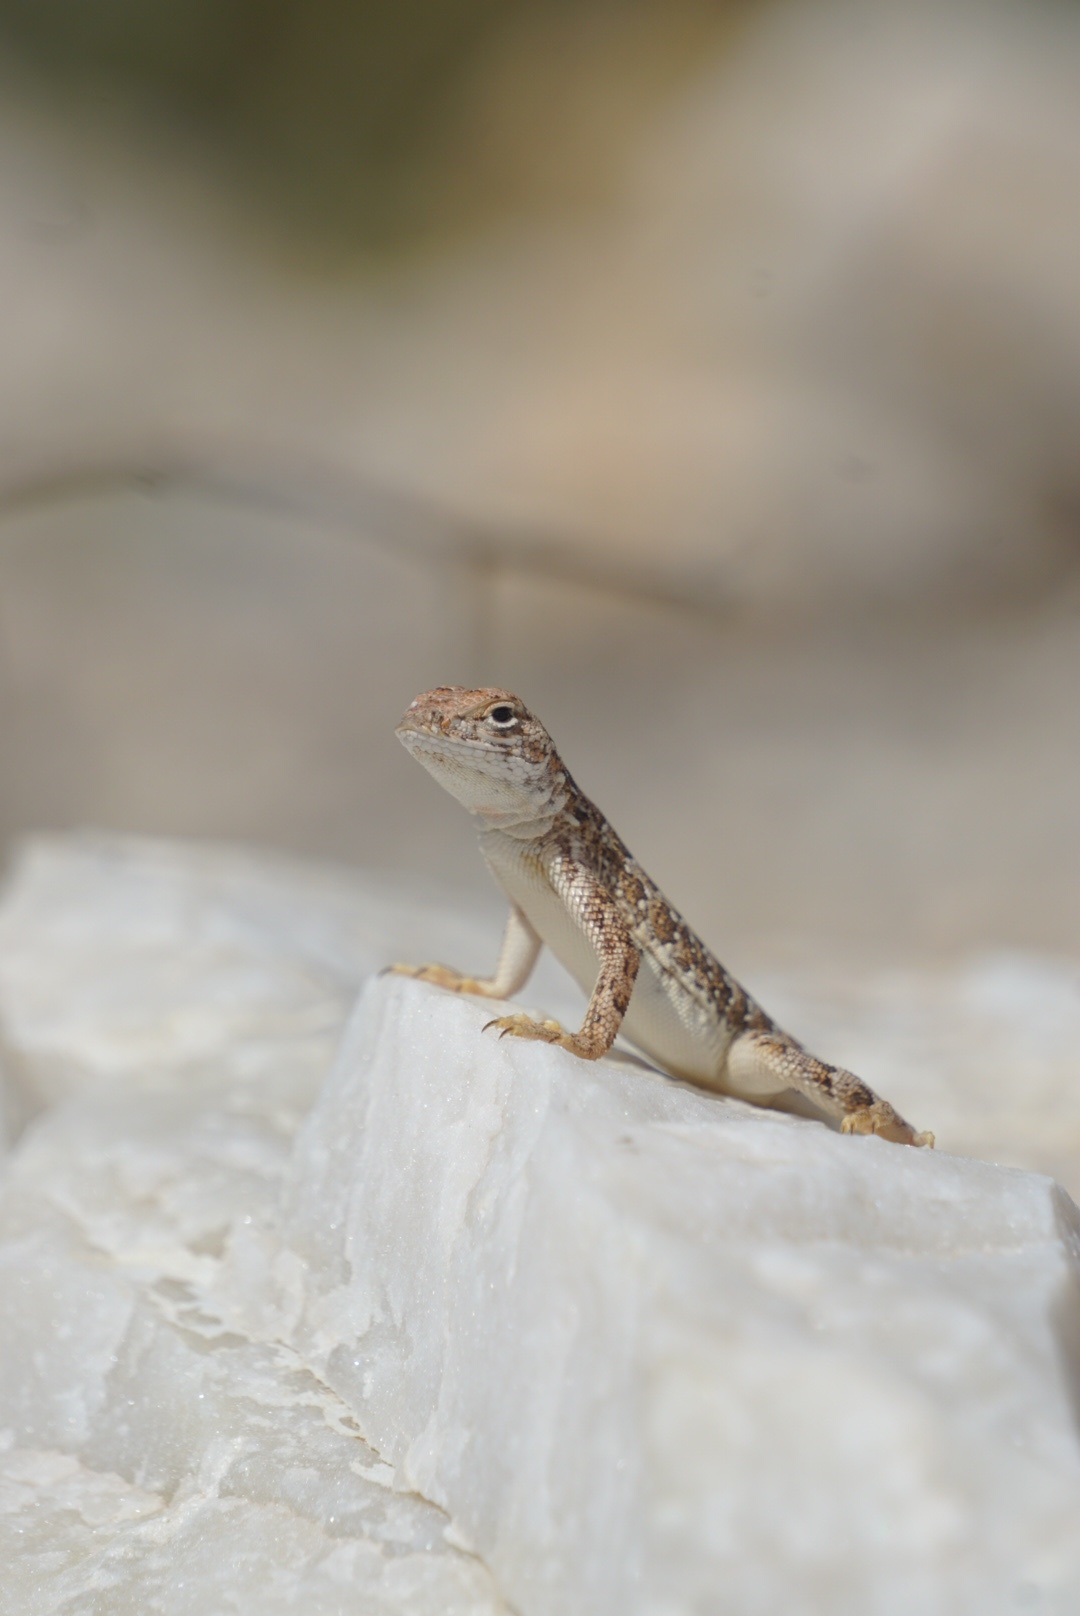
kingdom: Animalia
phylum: Chordata
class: Squamata
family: Phrynosomatidae
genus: Holbrookia
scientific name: Holbrookia elegans
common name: Elegant earless lizard
